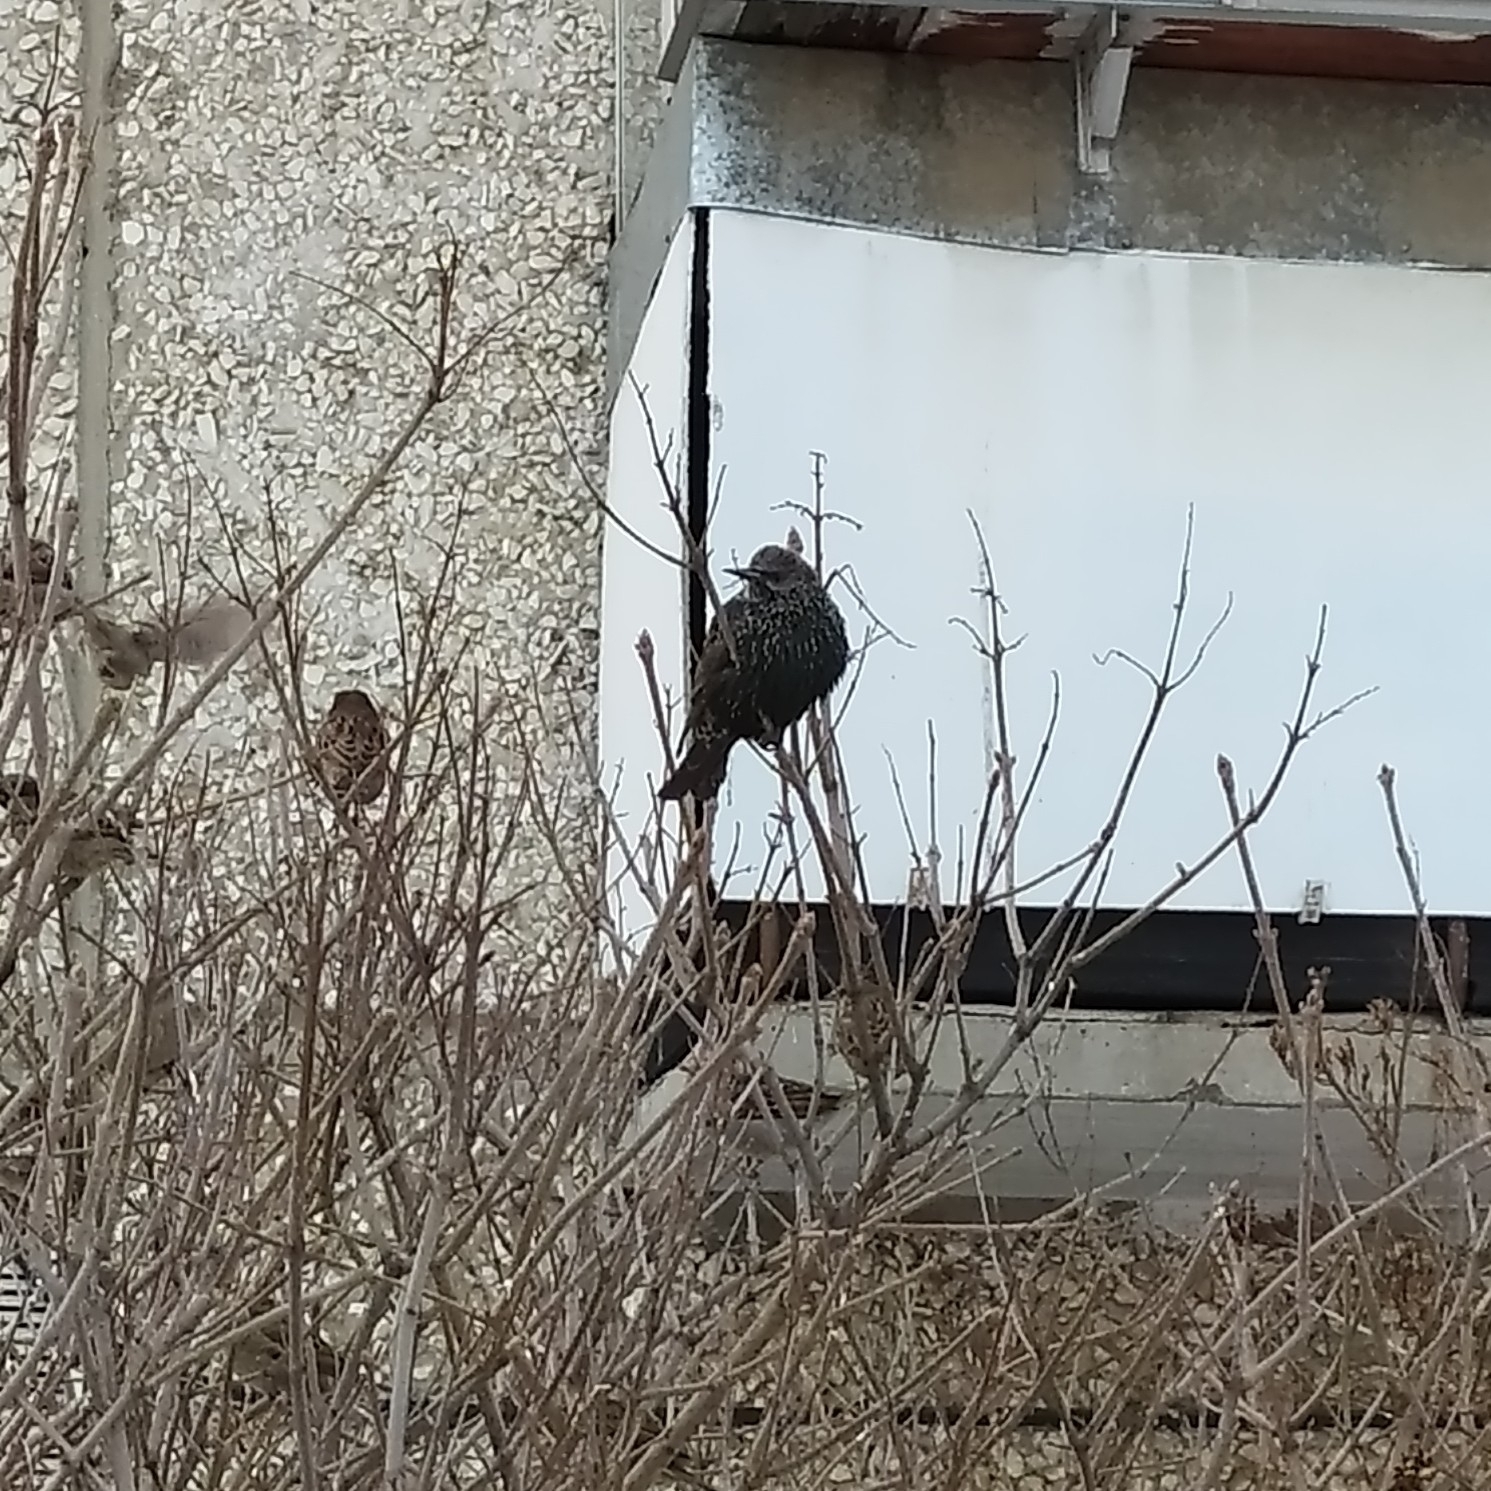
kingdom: Animalia
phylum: Chordata
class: Aves
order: Passeriformes
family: Sturnidae
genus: Sturnus
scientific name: Sturnus vulgaris
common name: Common starling
